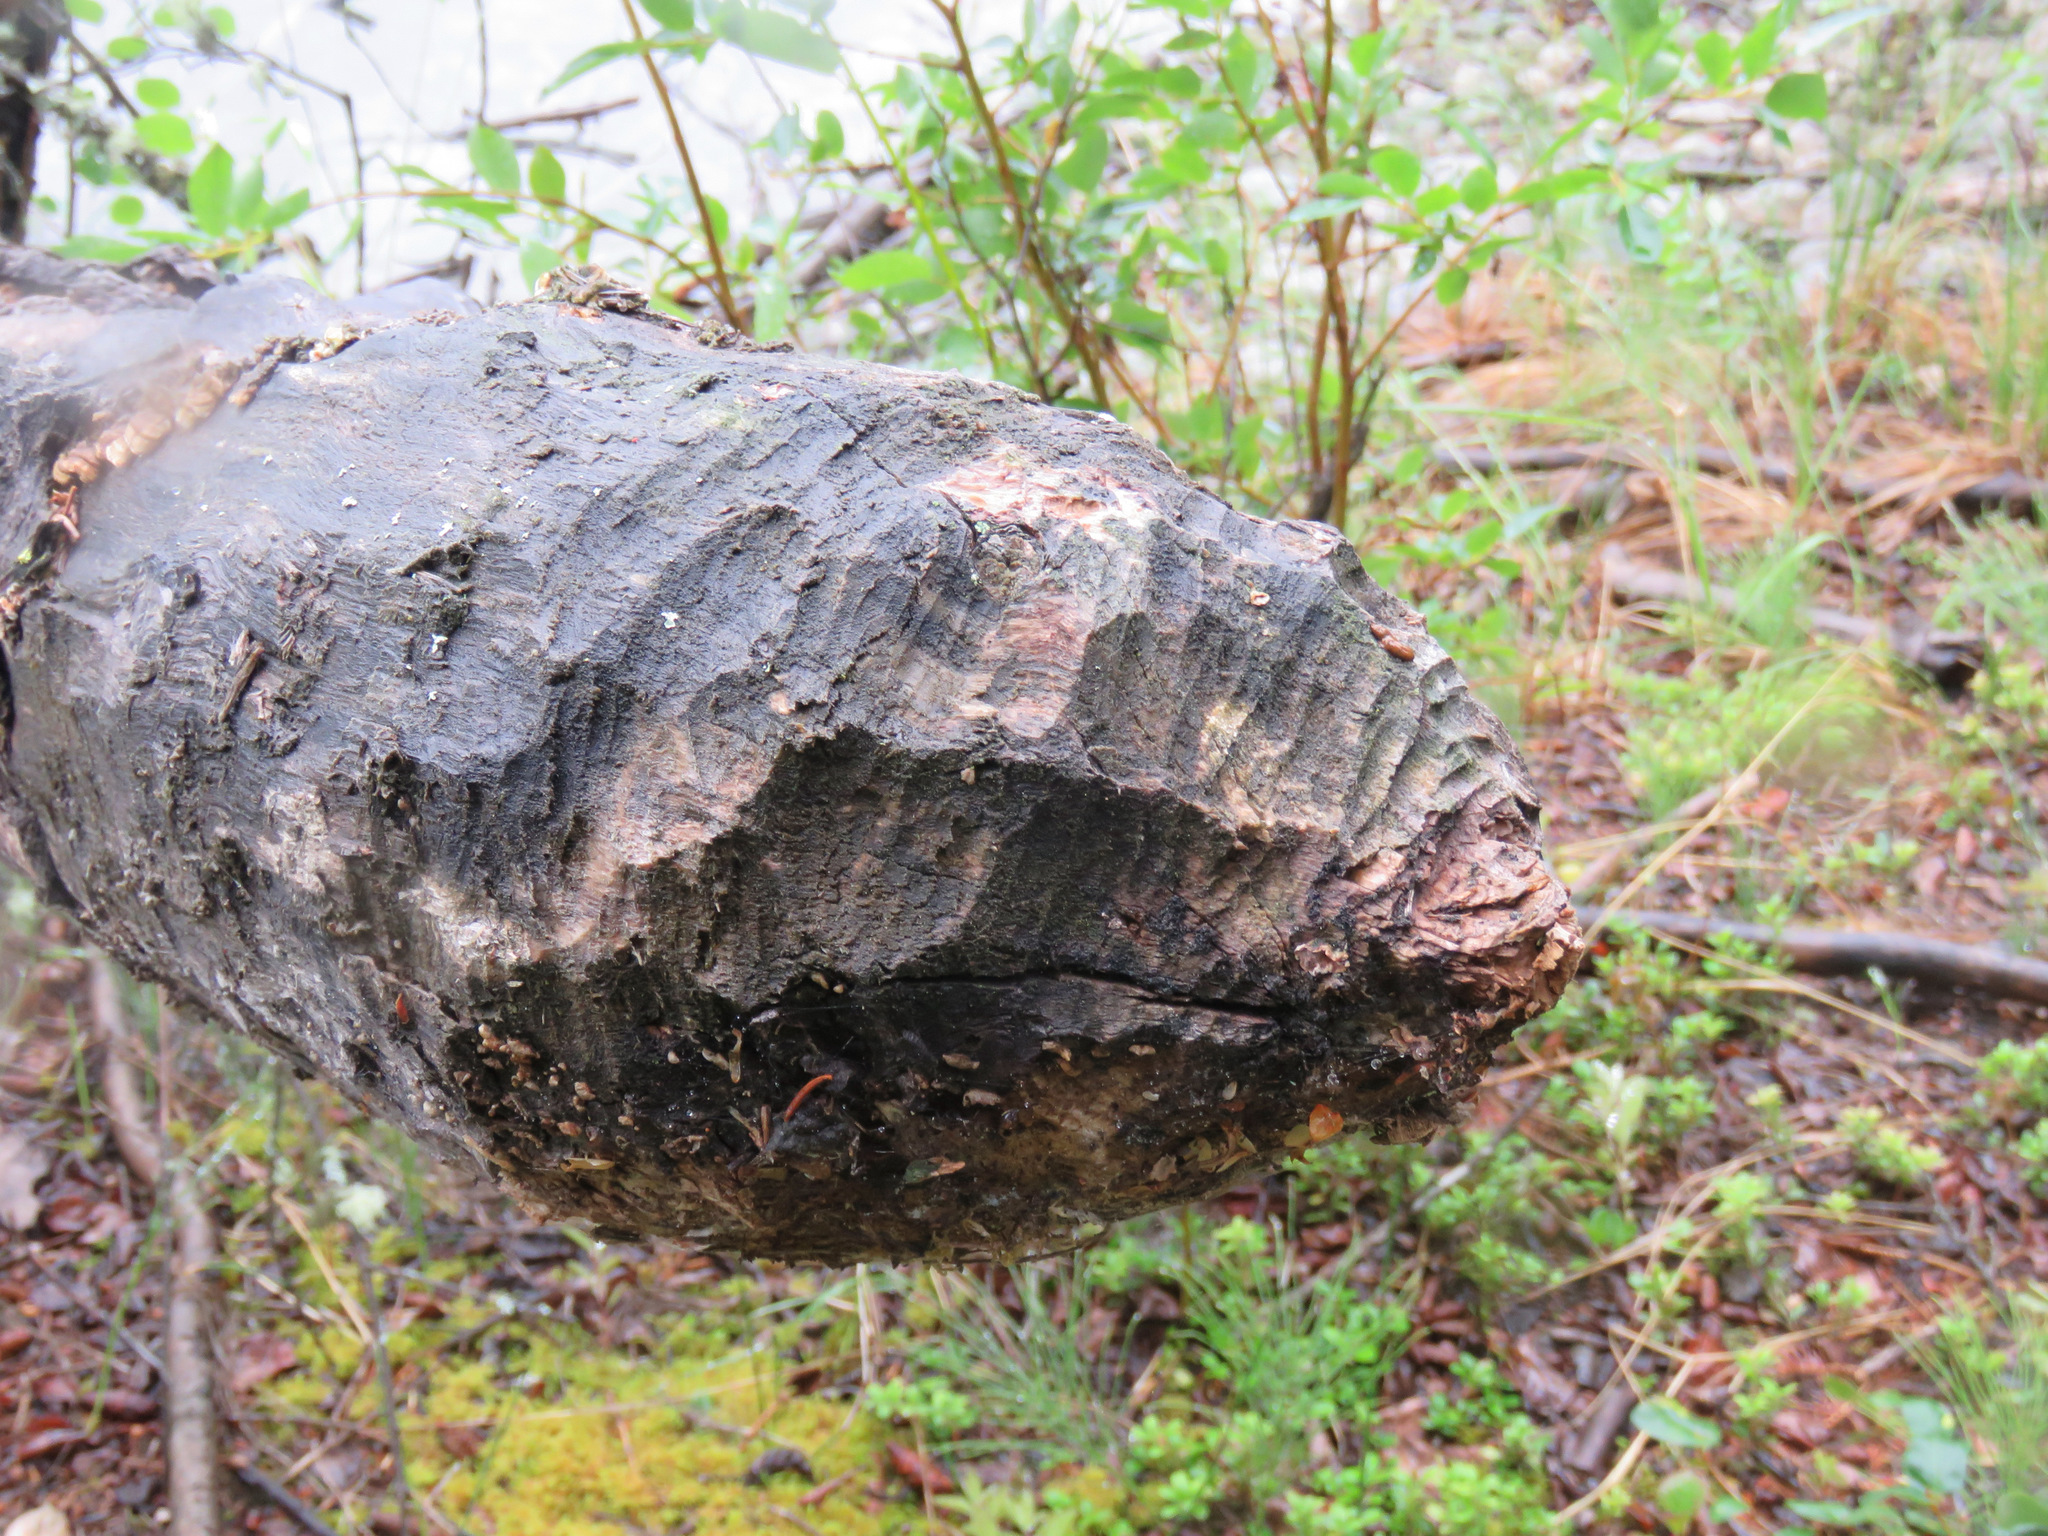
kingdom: Animalia
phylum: Chordata
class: Mammalia
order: Rodentia
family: Castoridae
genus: Castor
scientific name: Castor canadensis
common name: American beaver
